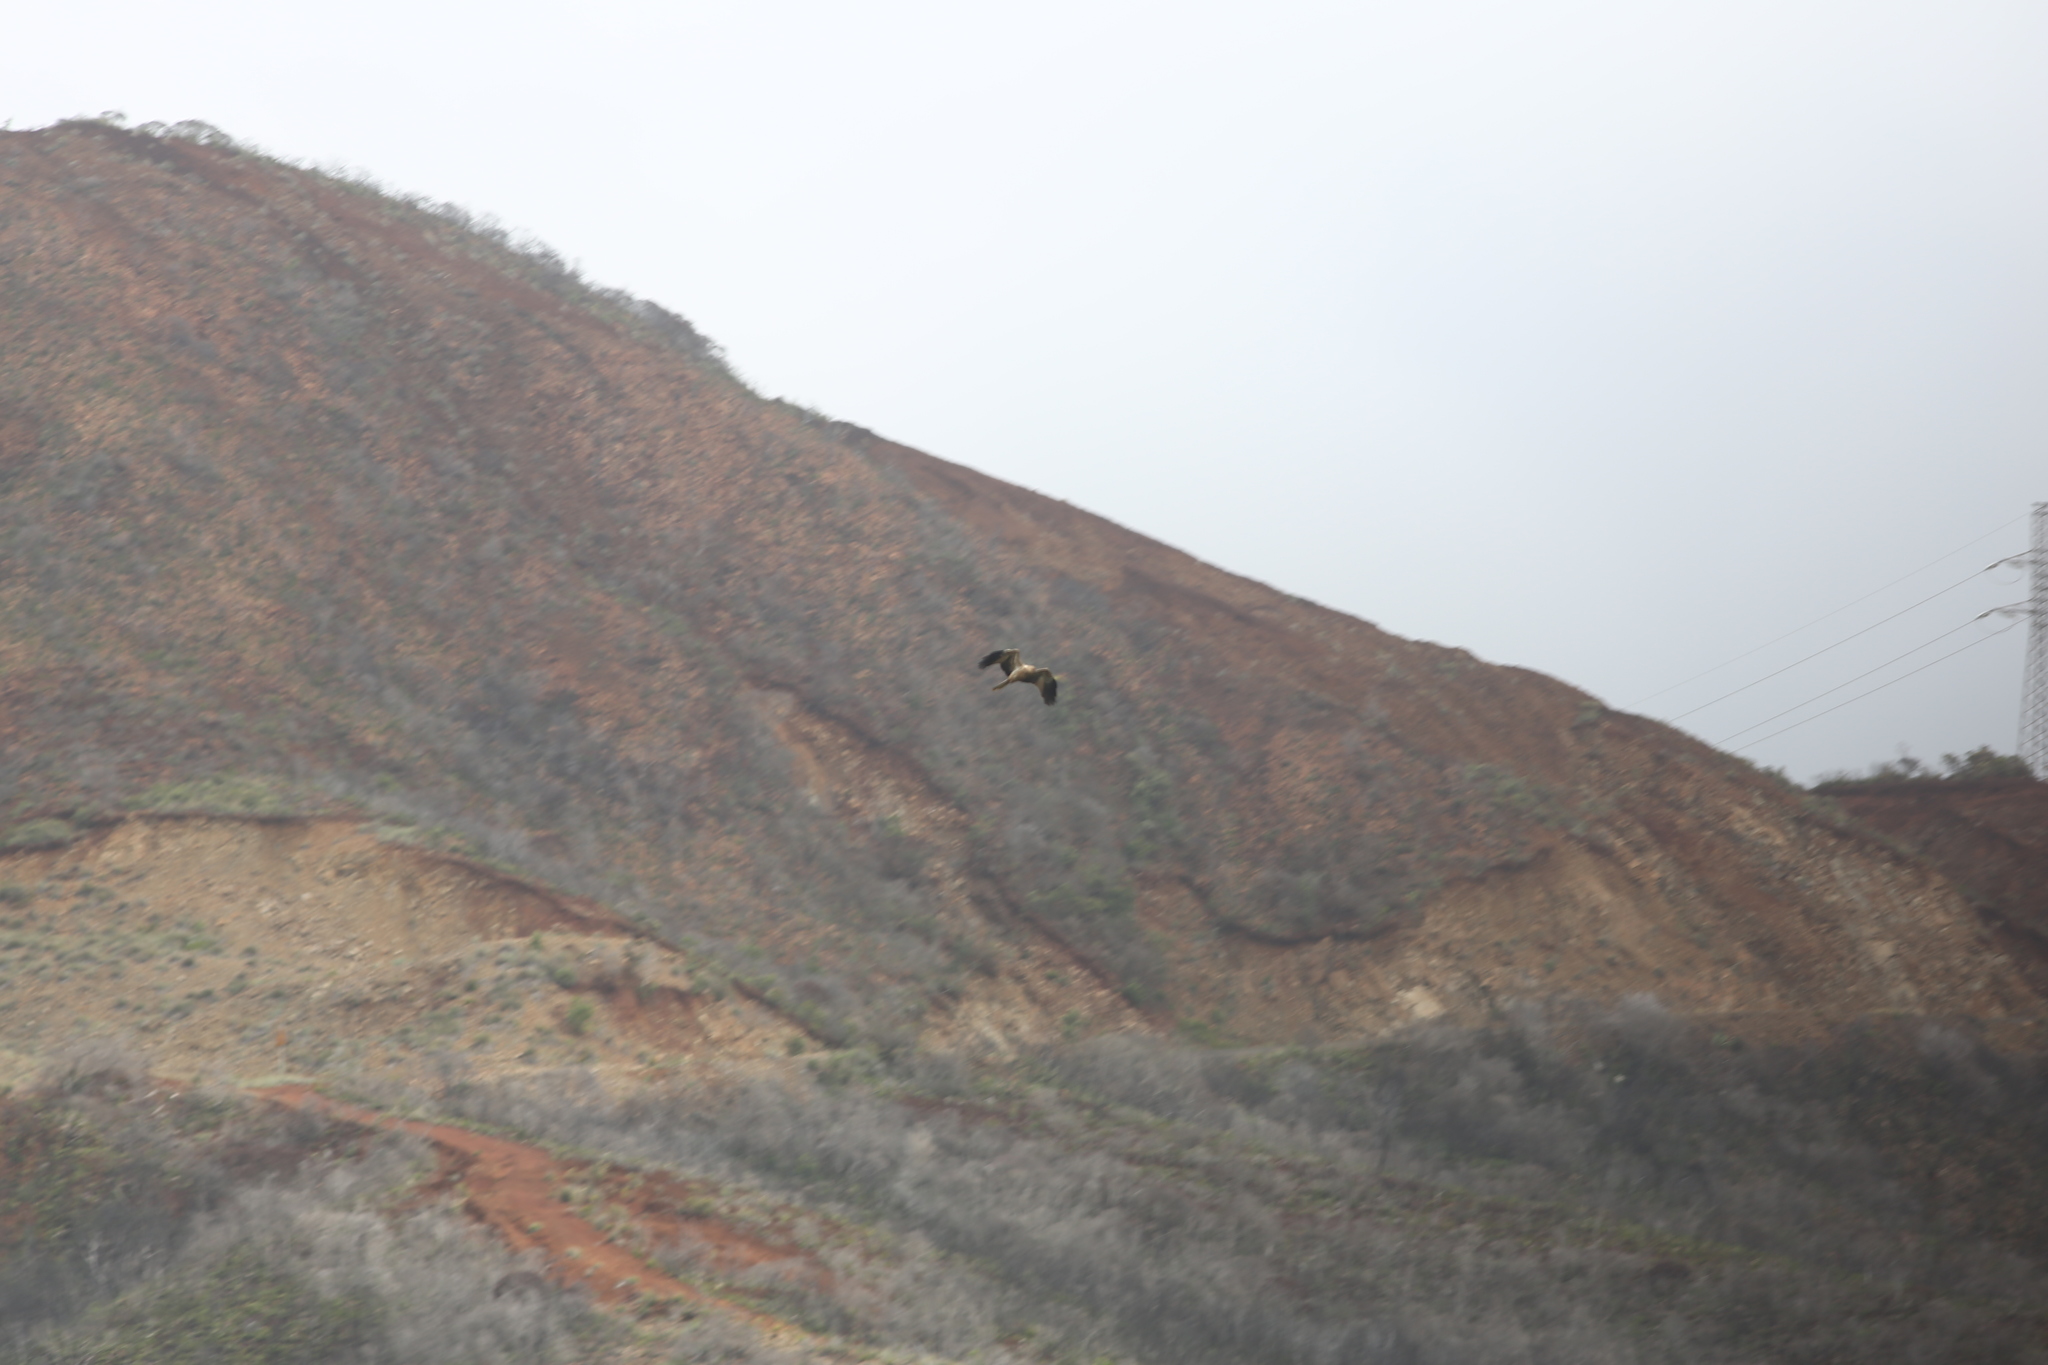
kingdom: Animalia
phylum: Chordata
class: Aves
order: Accipitriformes
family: Accipitridae
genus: Haliastur
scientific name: Haliastur sphenurus
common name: Whistling kite
